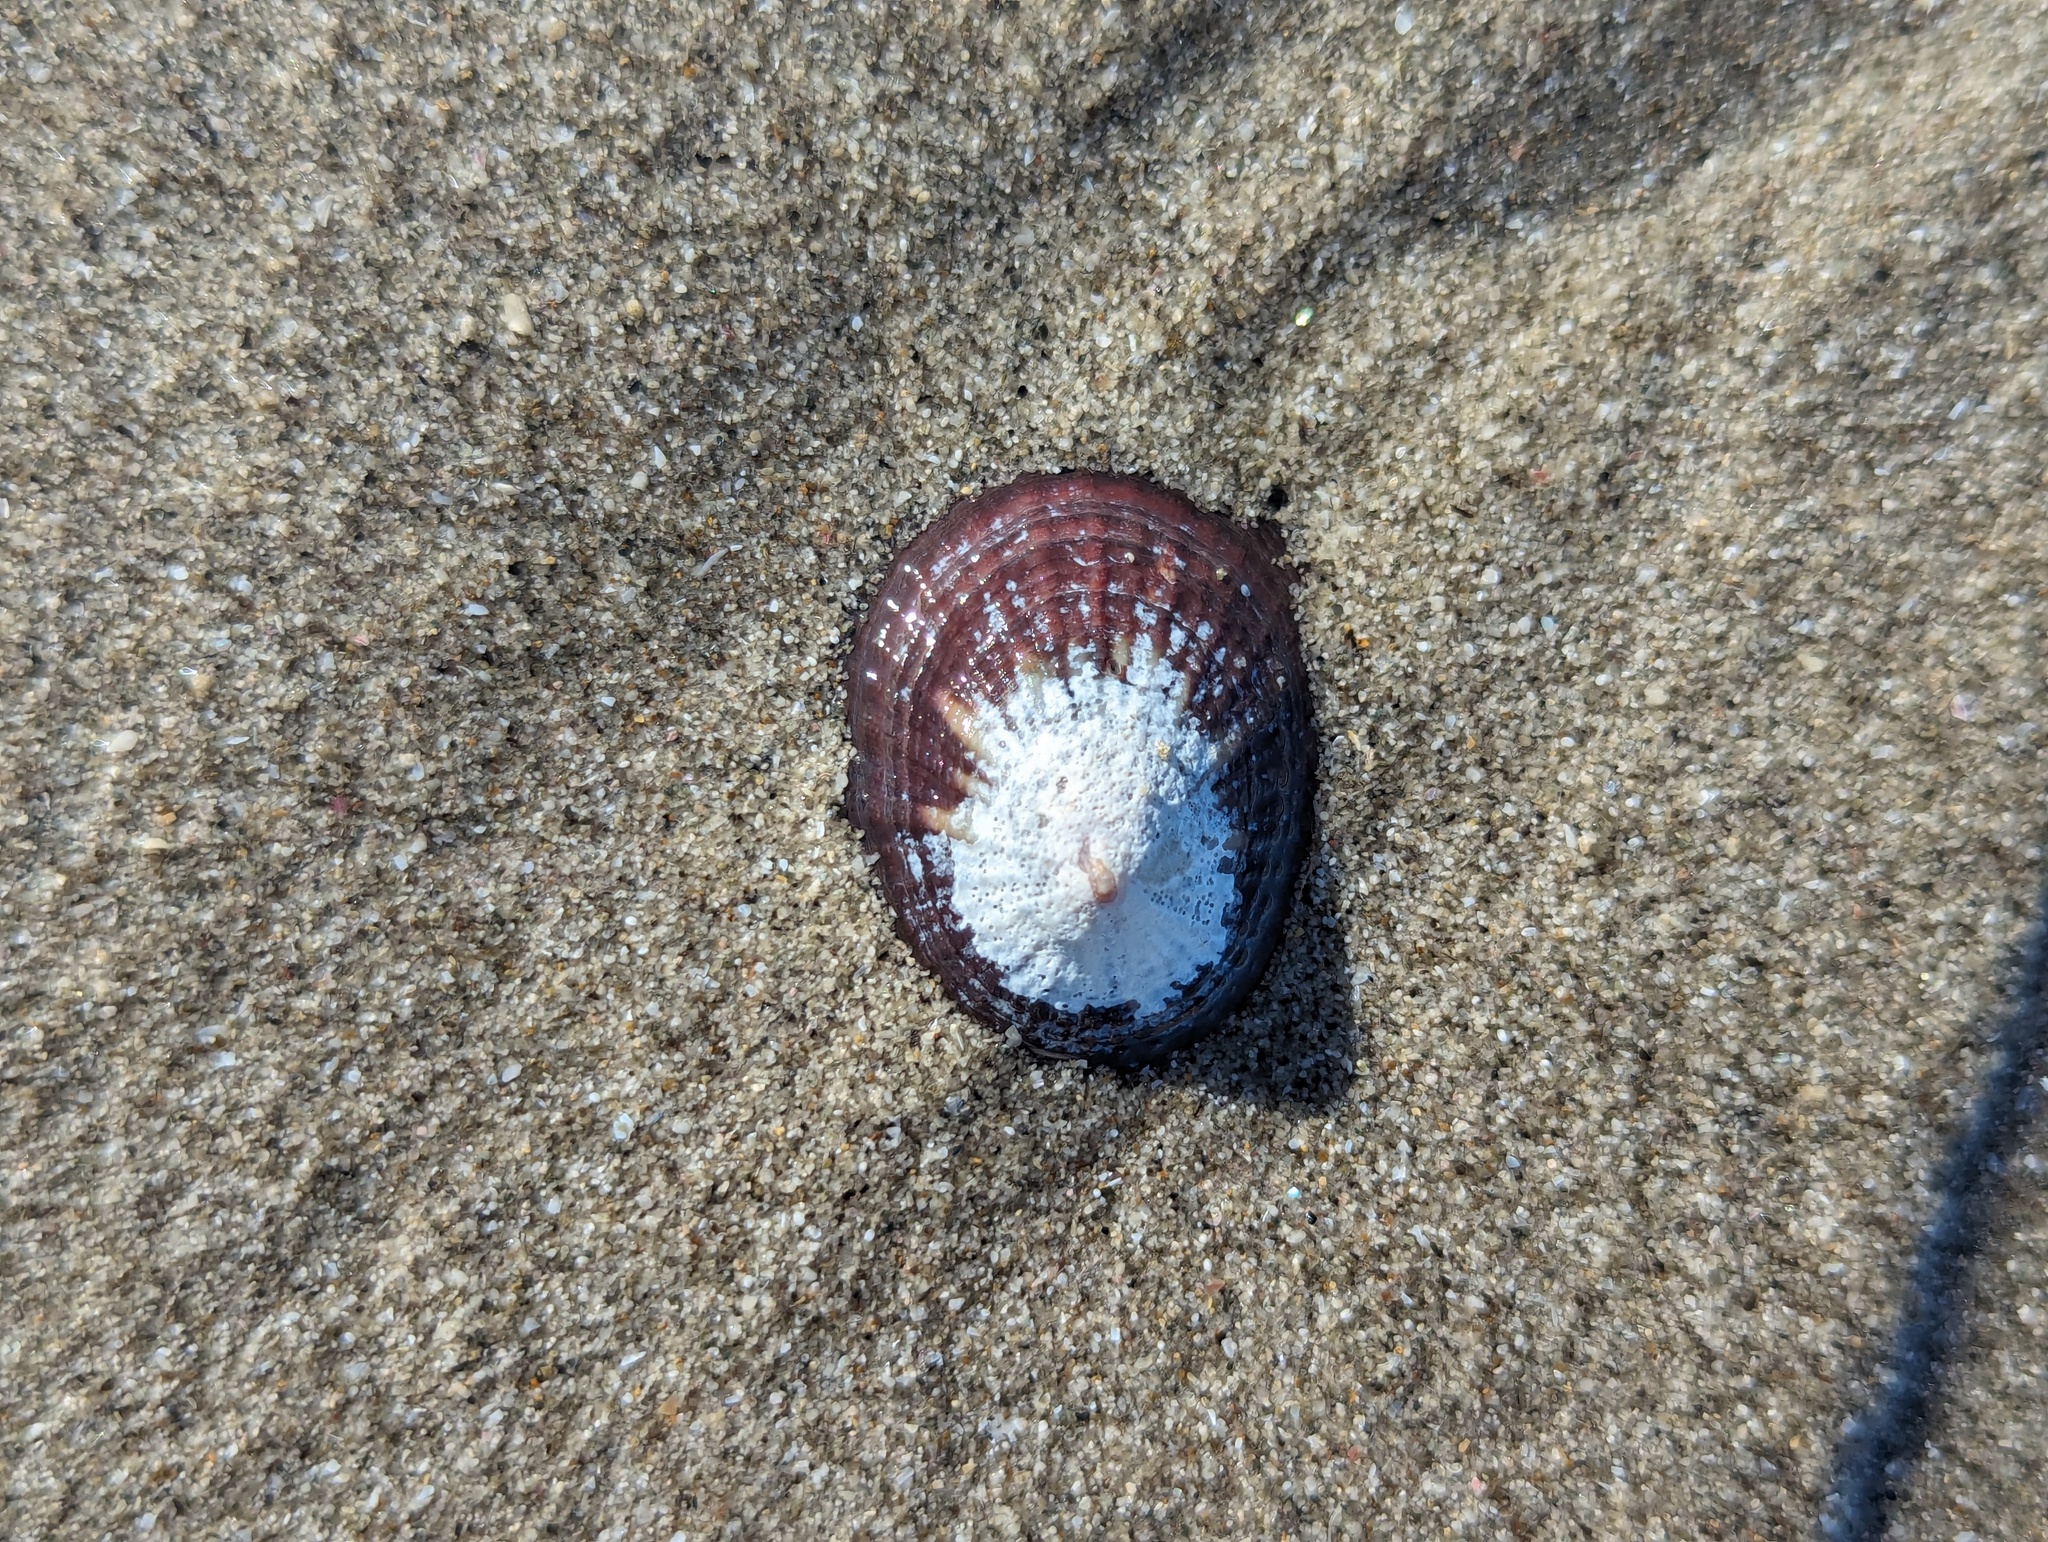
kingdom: Animalia
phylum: Mollusca
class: Gastropoda
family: Nacellidae
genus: Cellana
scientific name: Cellana stellifera
